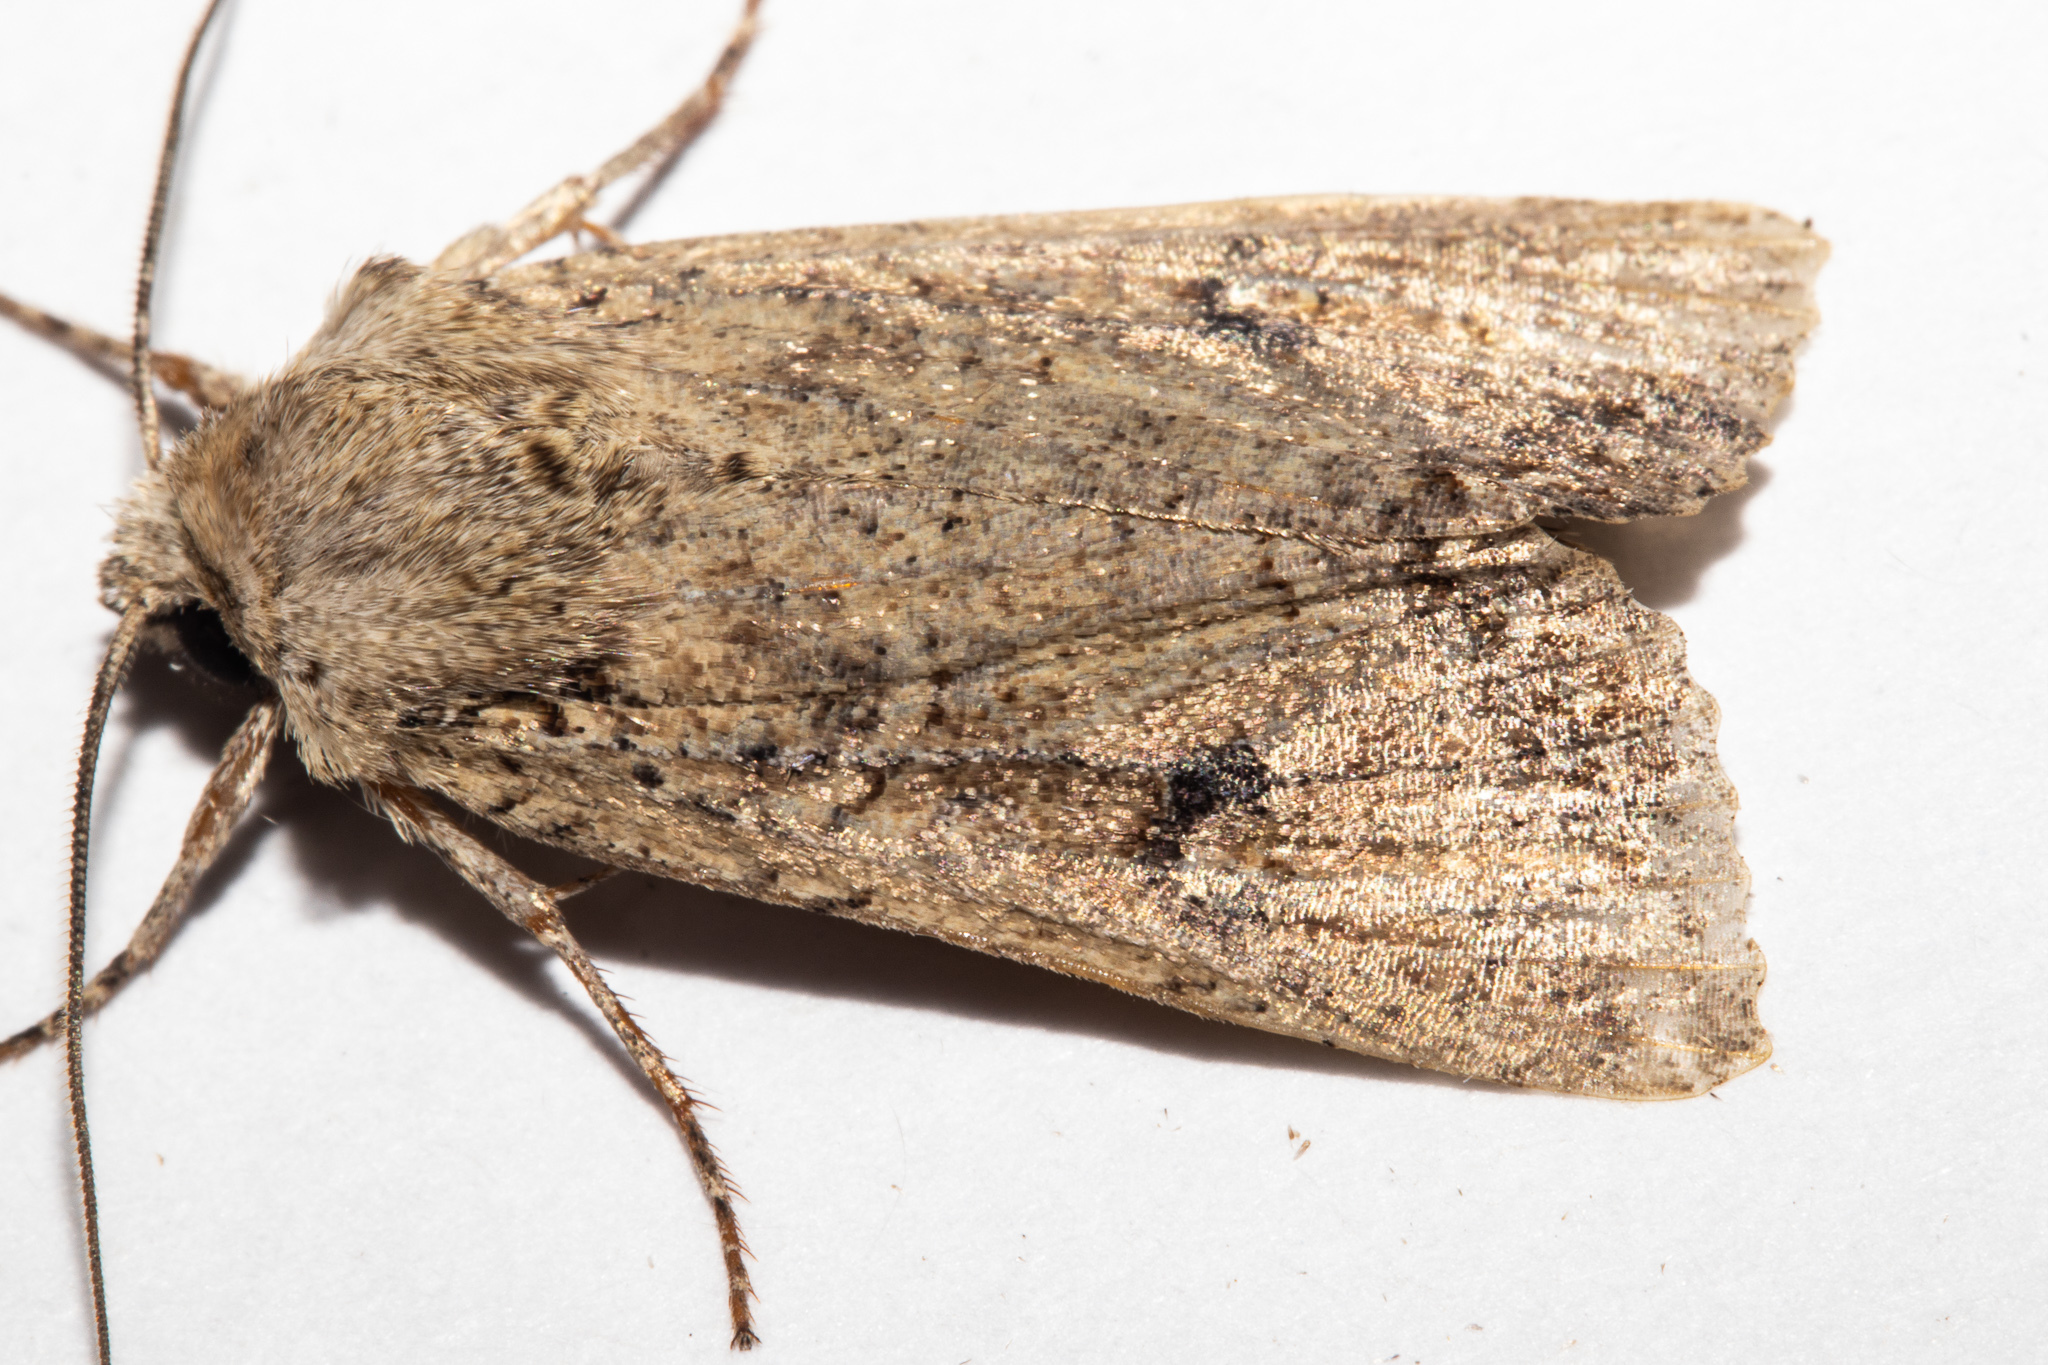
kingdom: Animalia
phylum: Arthropoda
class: Insecta
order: Lepidoptera
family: Noctuidae
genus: Ichneutica
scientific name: Ichneutica lignana
